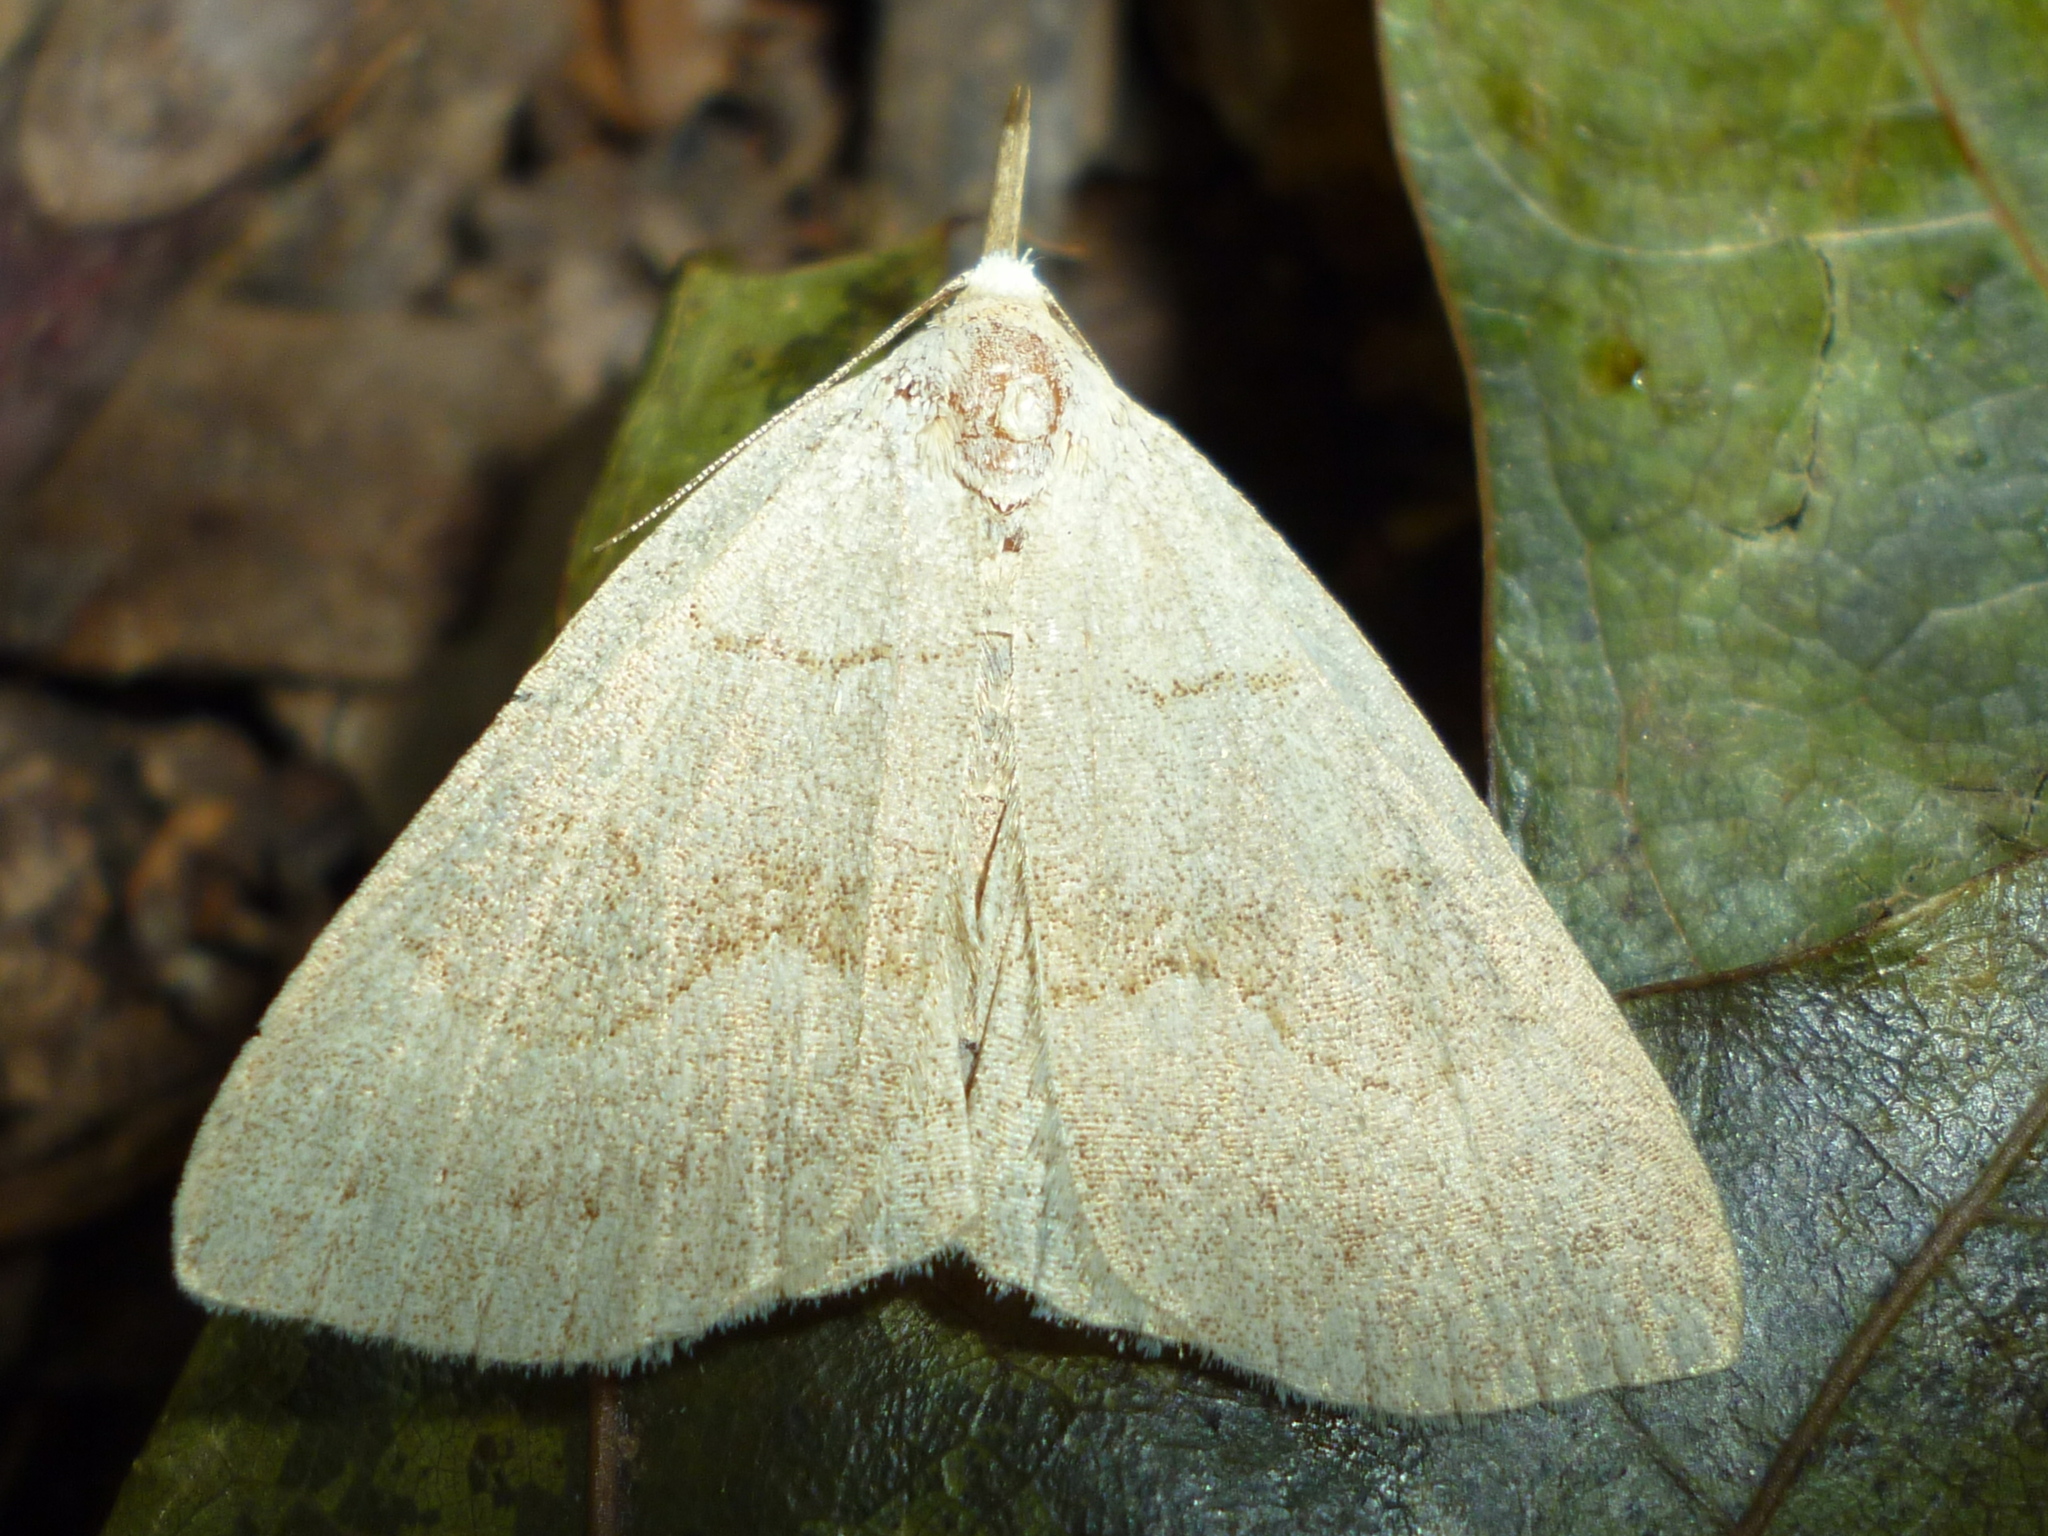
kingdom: Animalia
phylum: Arthropoda
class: Insecta
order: Lepidoptera
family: Erebidae
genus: Macrochilo
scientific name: Macrochilo morbidalis
